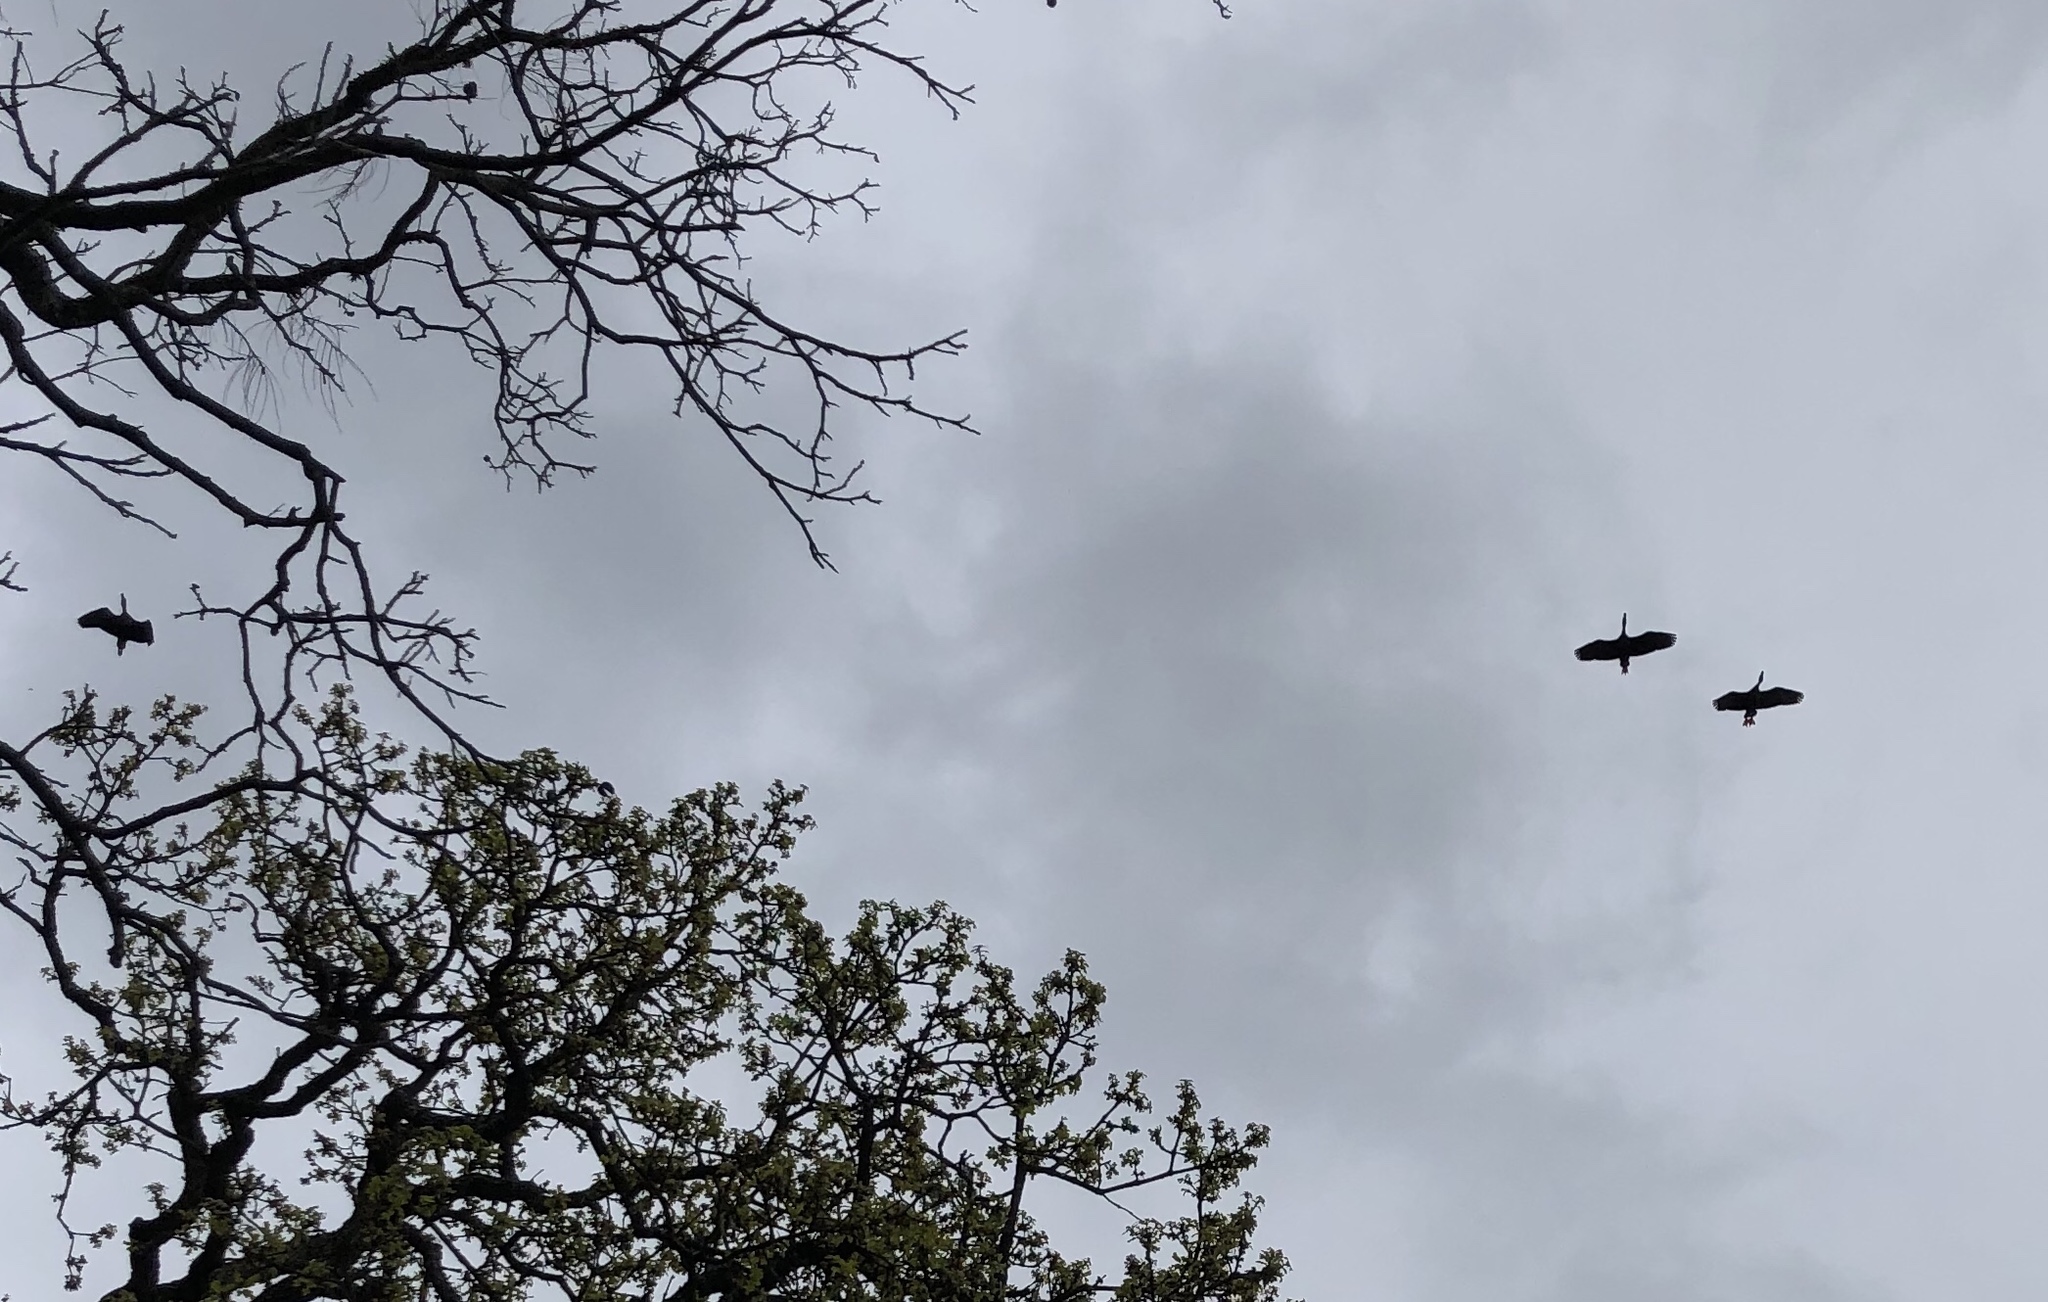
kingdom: Animalia
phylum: Chordata
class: Aves
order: Anseriformes
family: Anatidae
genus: Dendrocygna
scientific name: Dendrocygna autumnalis
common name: Black-bellied whistling duck
